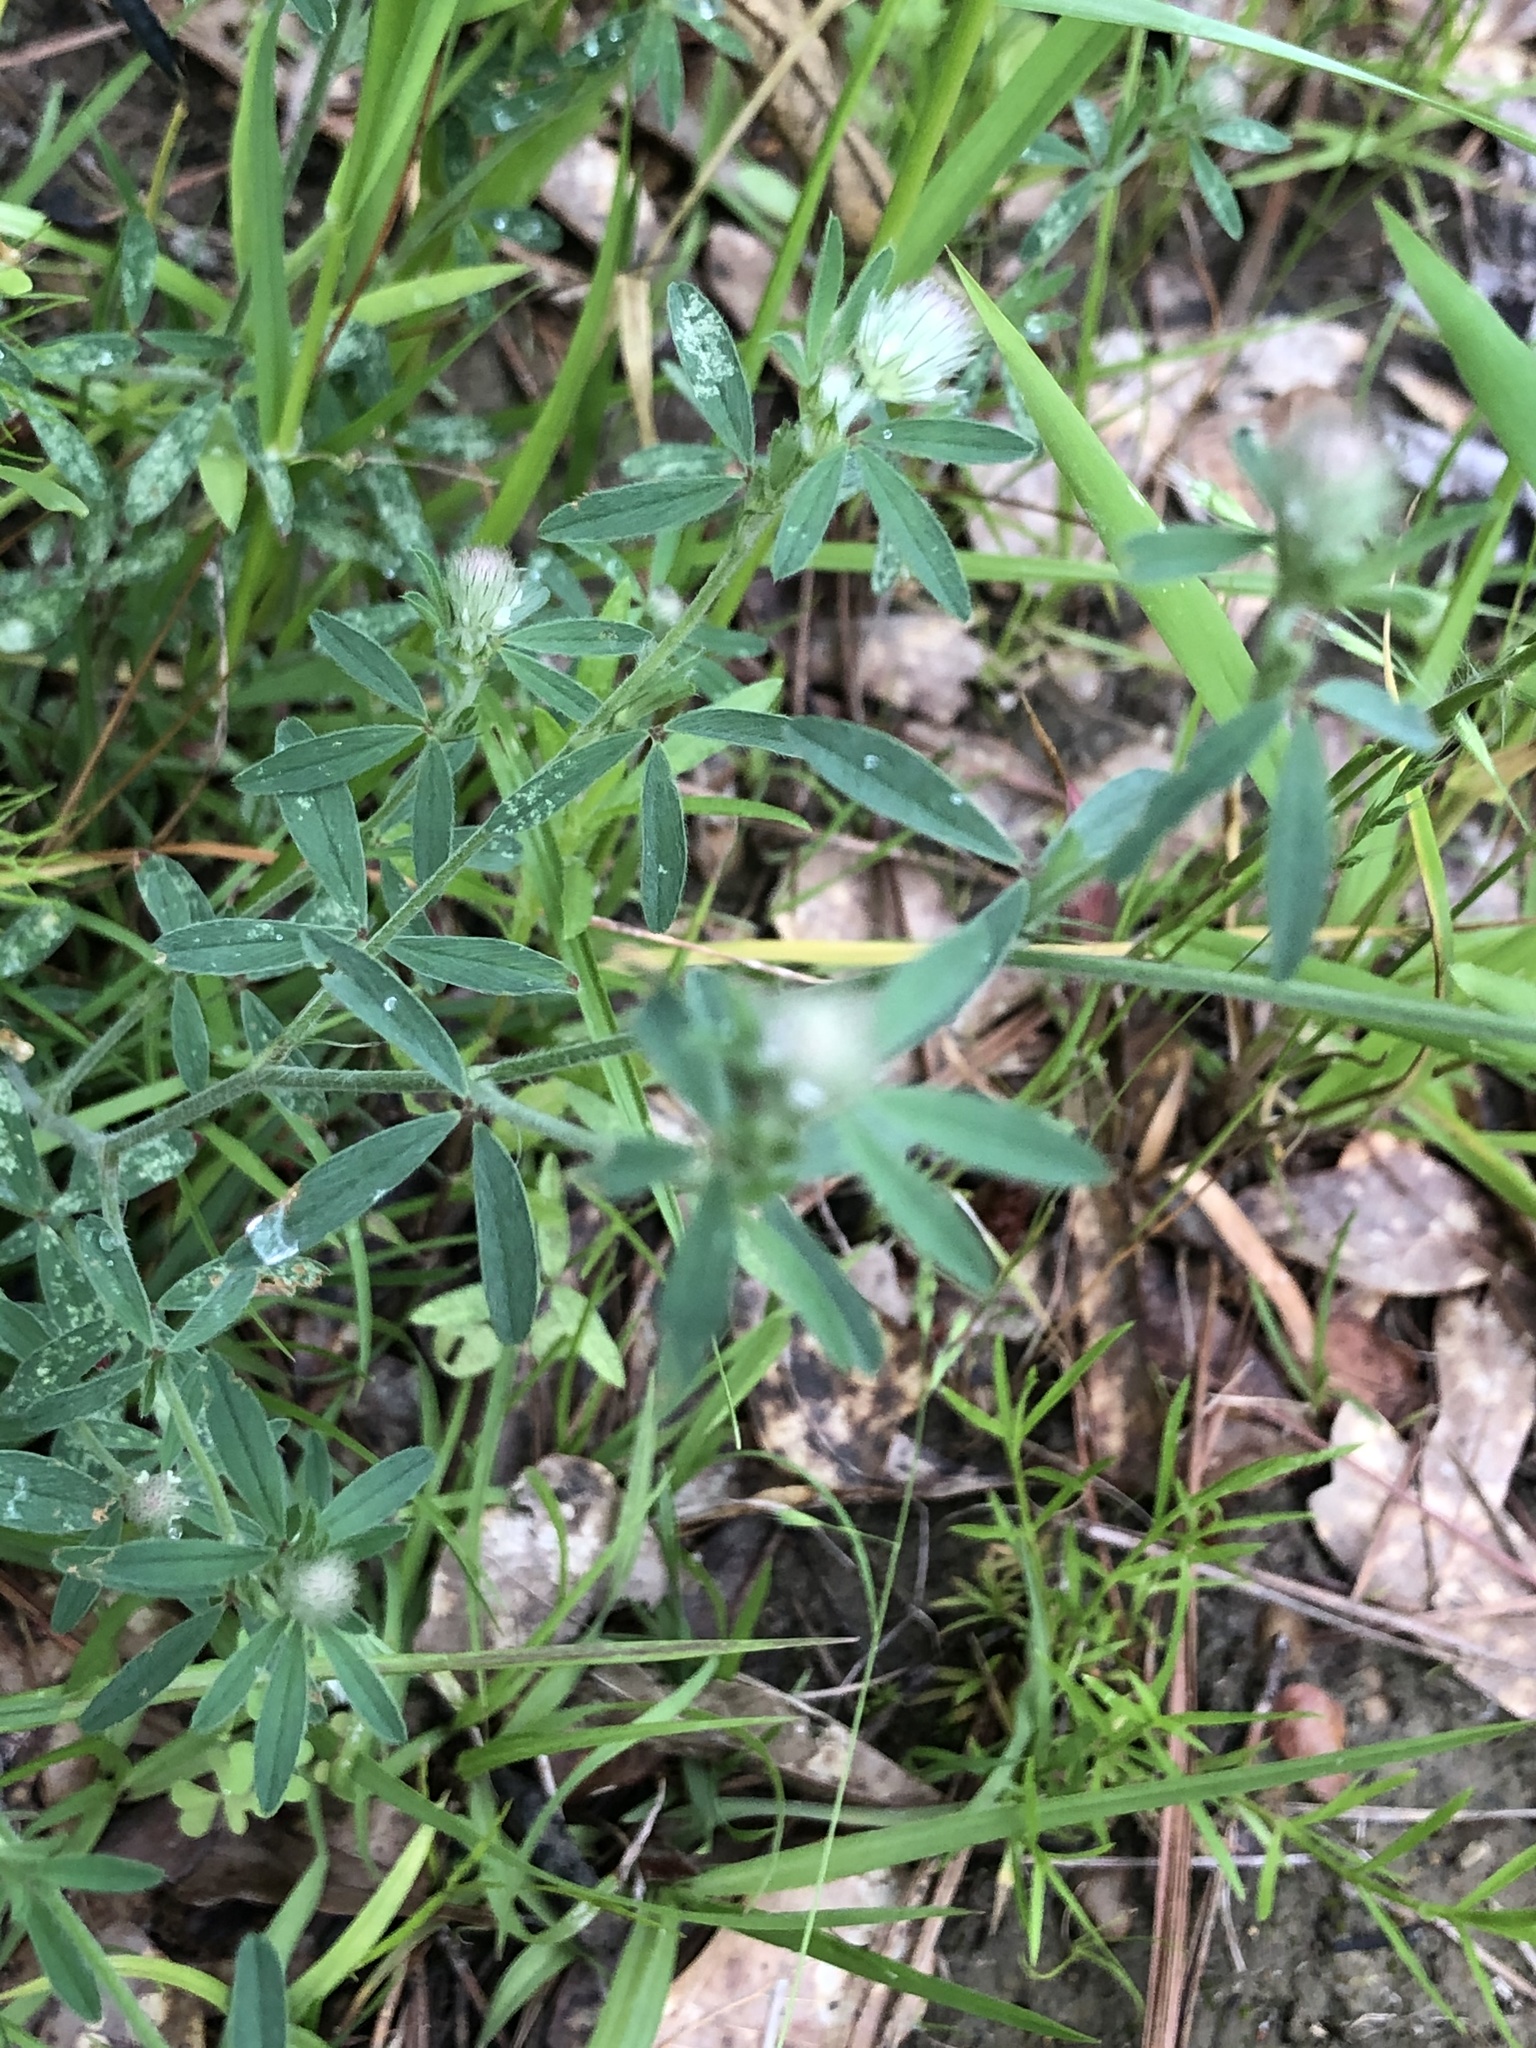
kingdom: Plantae
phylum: Tracheophyta
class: Magnoliopsida
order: Fabales
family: Fabaceae
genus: Trifolium
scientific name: Trifolium arvense
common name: Hare's-foot clover
